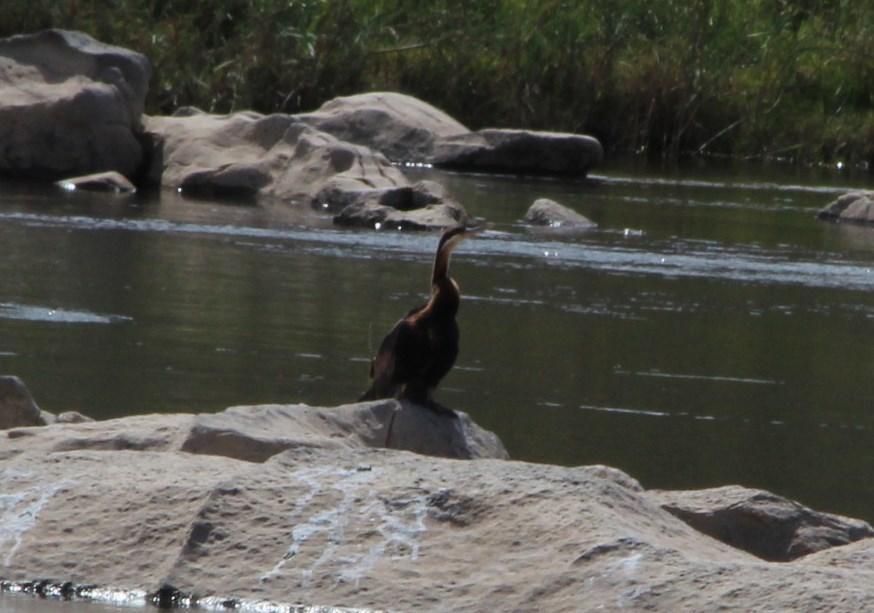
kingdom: Animalia
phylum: Chordata
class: Aves
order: Suliformes
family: Anhingidae
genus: Anhinga
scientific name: Anhinga rufa
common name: African darter
